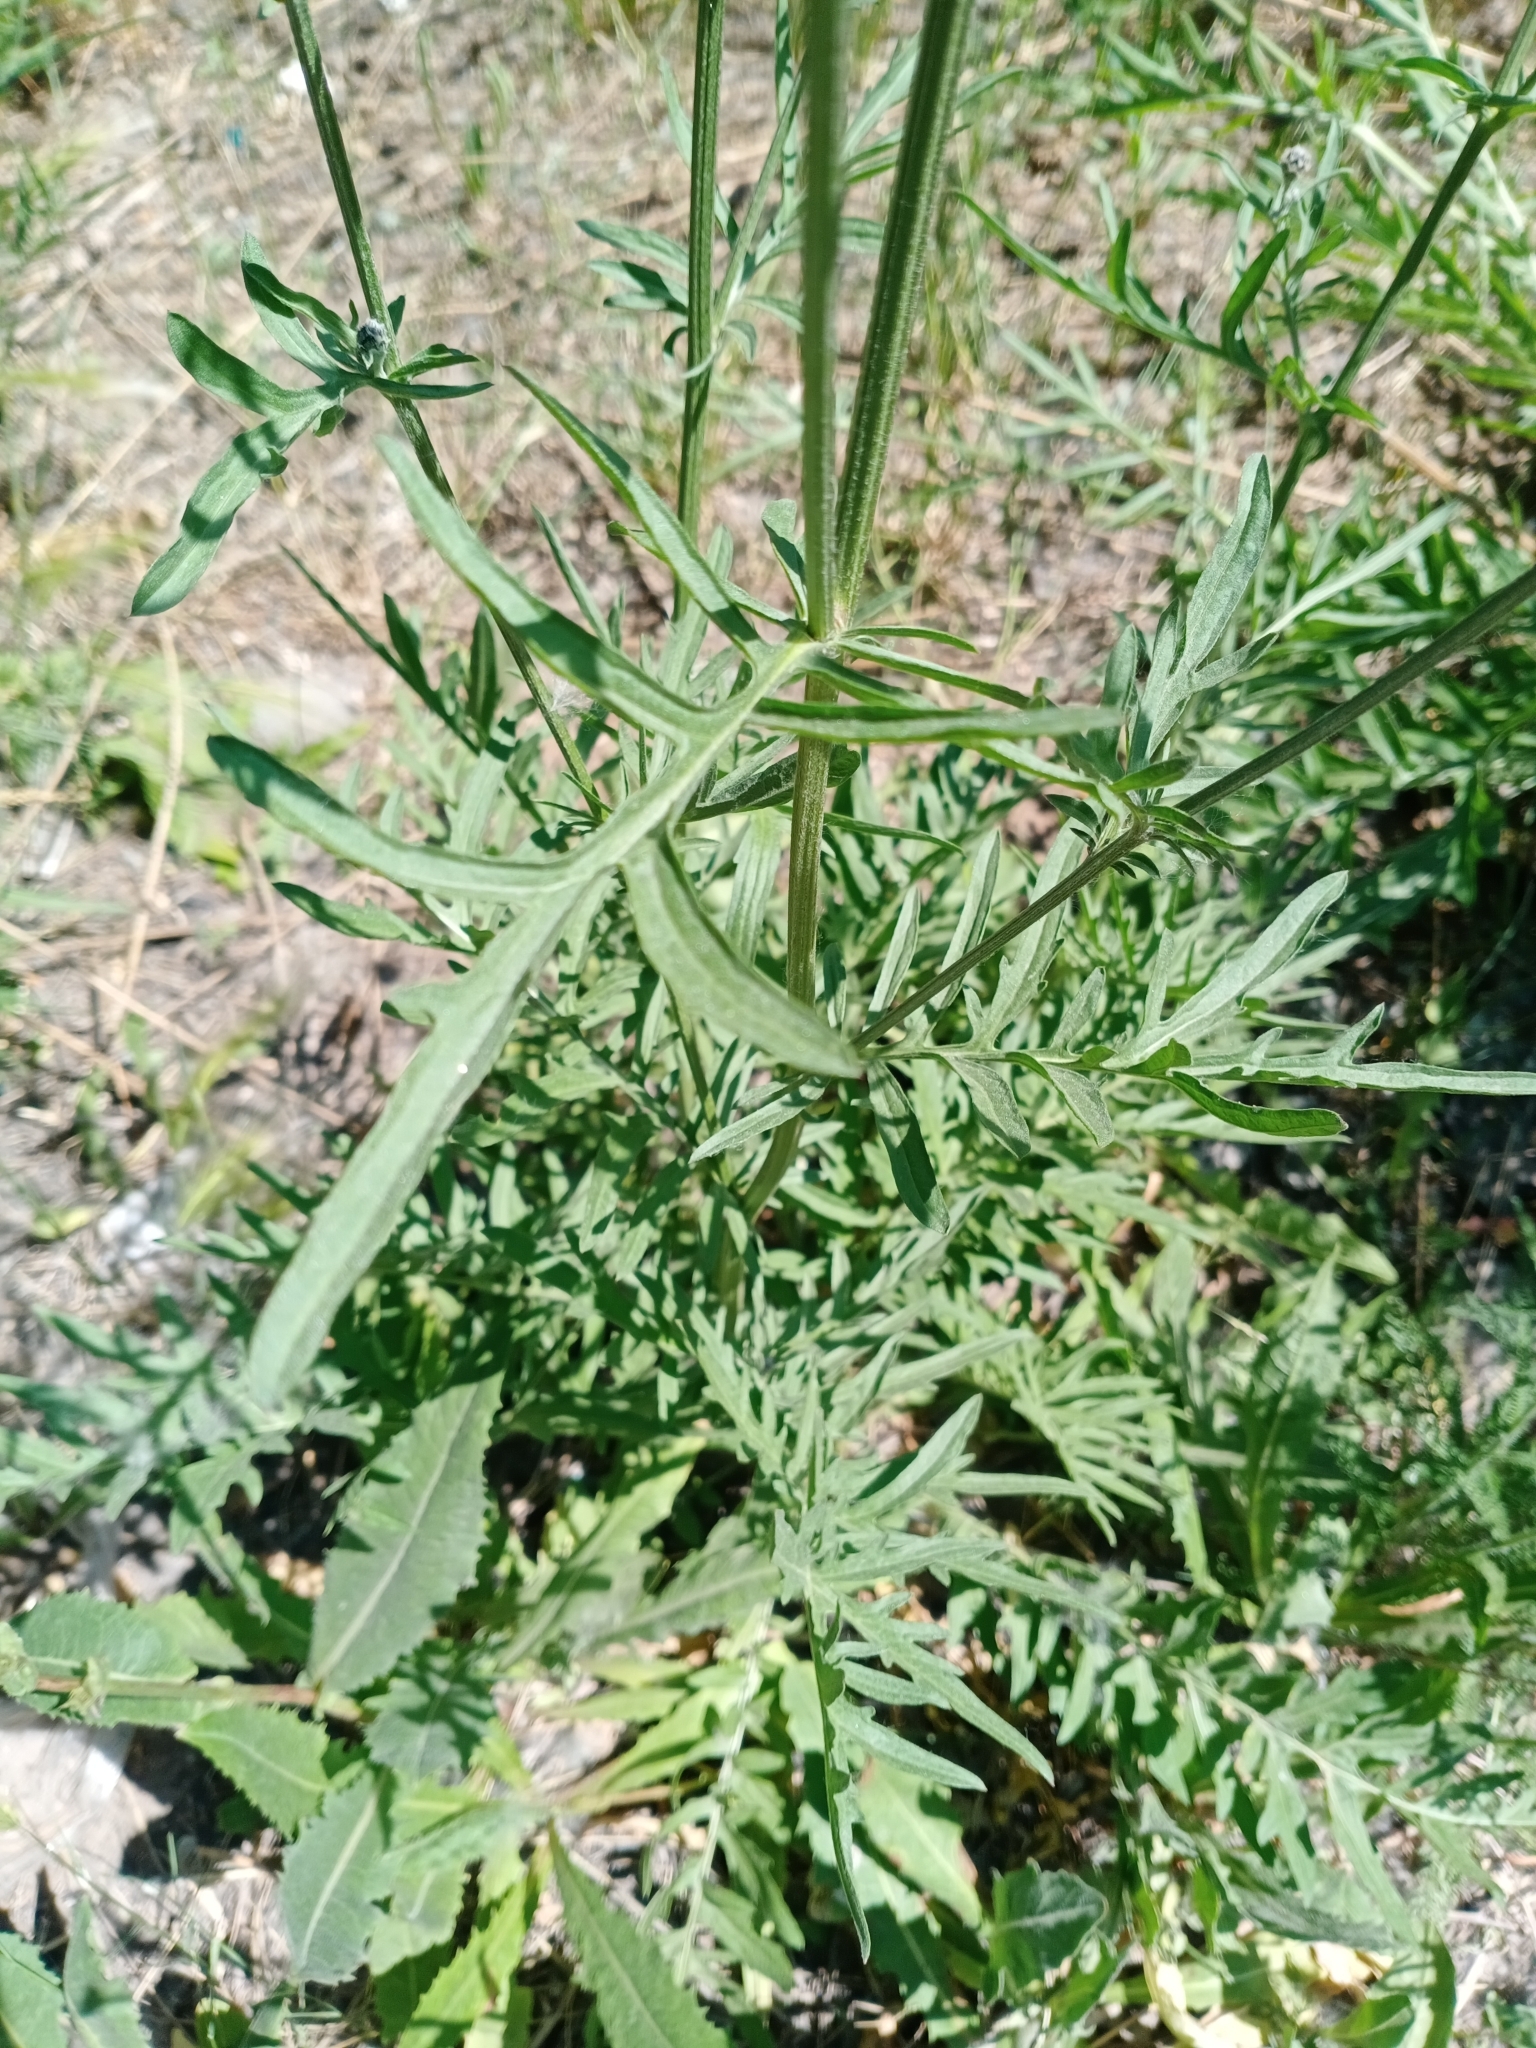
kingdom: Plantae
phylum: Tracheophyta
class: Magnoliopsida
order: Asterales
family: Asteraceae
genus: Centaurea
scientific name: Centaurea scabiosa
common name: Greater knapweed
